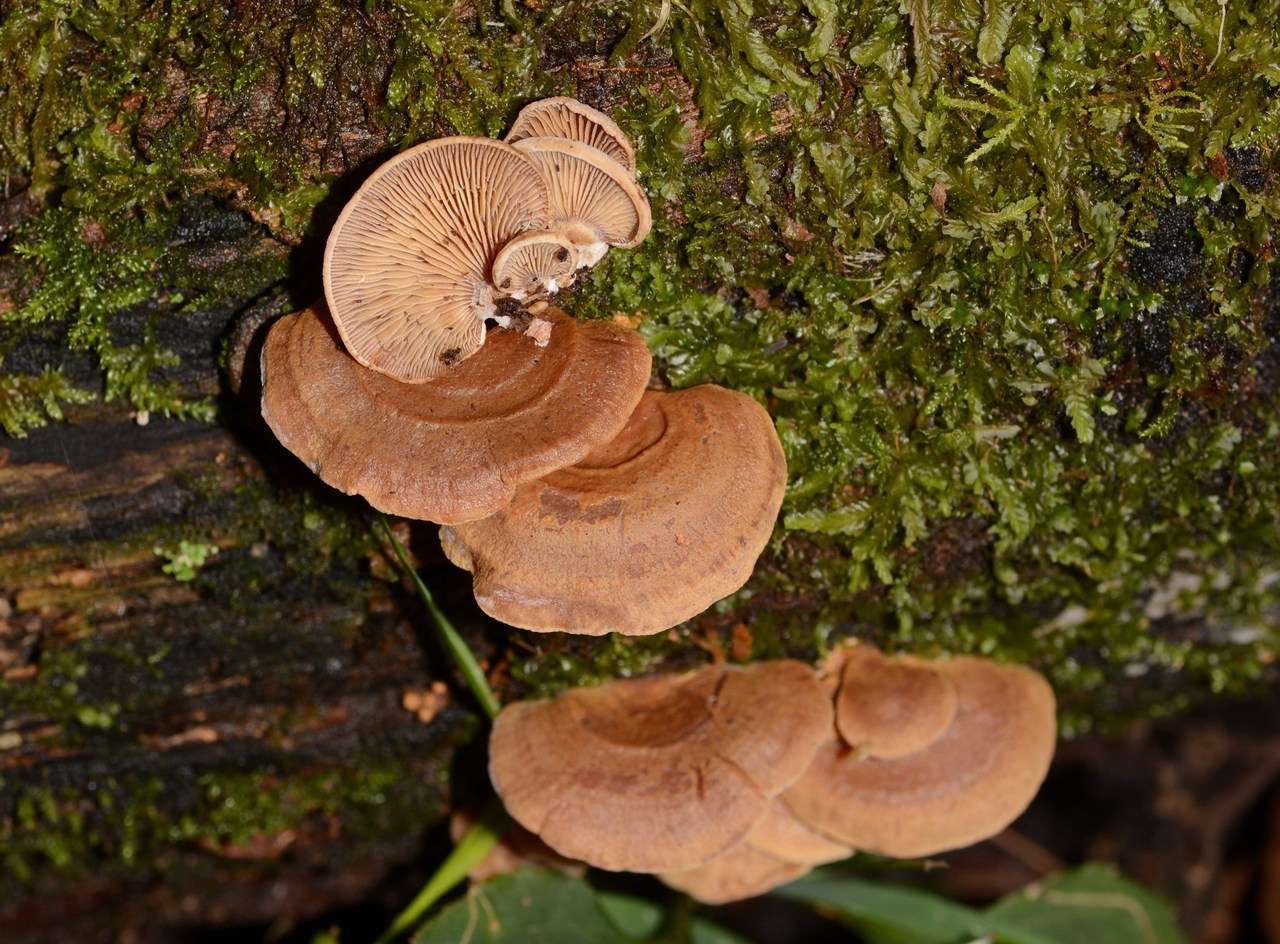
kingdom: Fungi
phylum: Basidiomycota
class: Agaricomycetes
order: Agaricales
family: Mycenaceae
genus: Panellus
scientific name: Panellus stipticus
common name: Bitter oysterling
